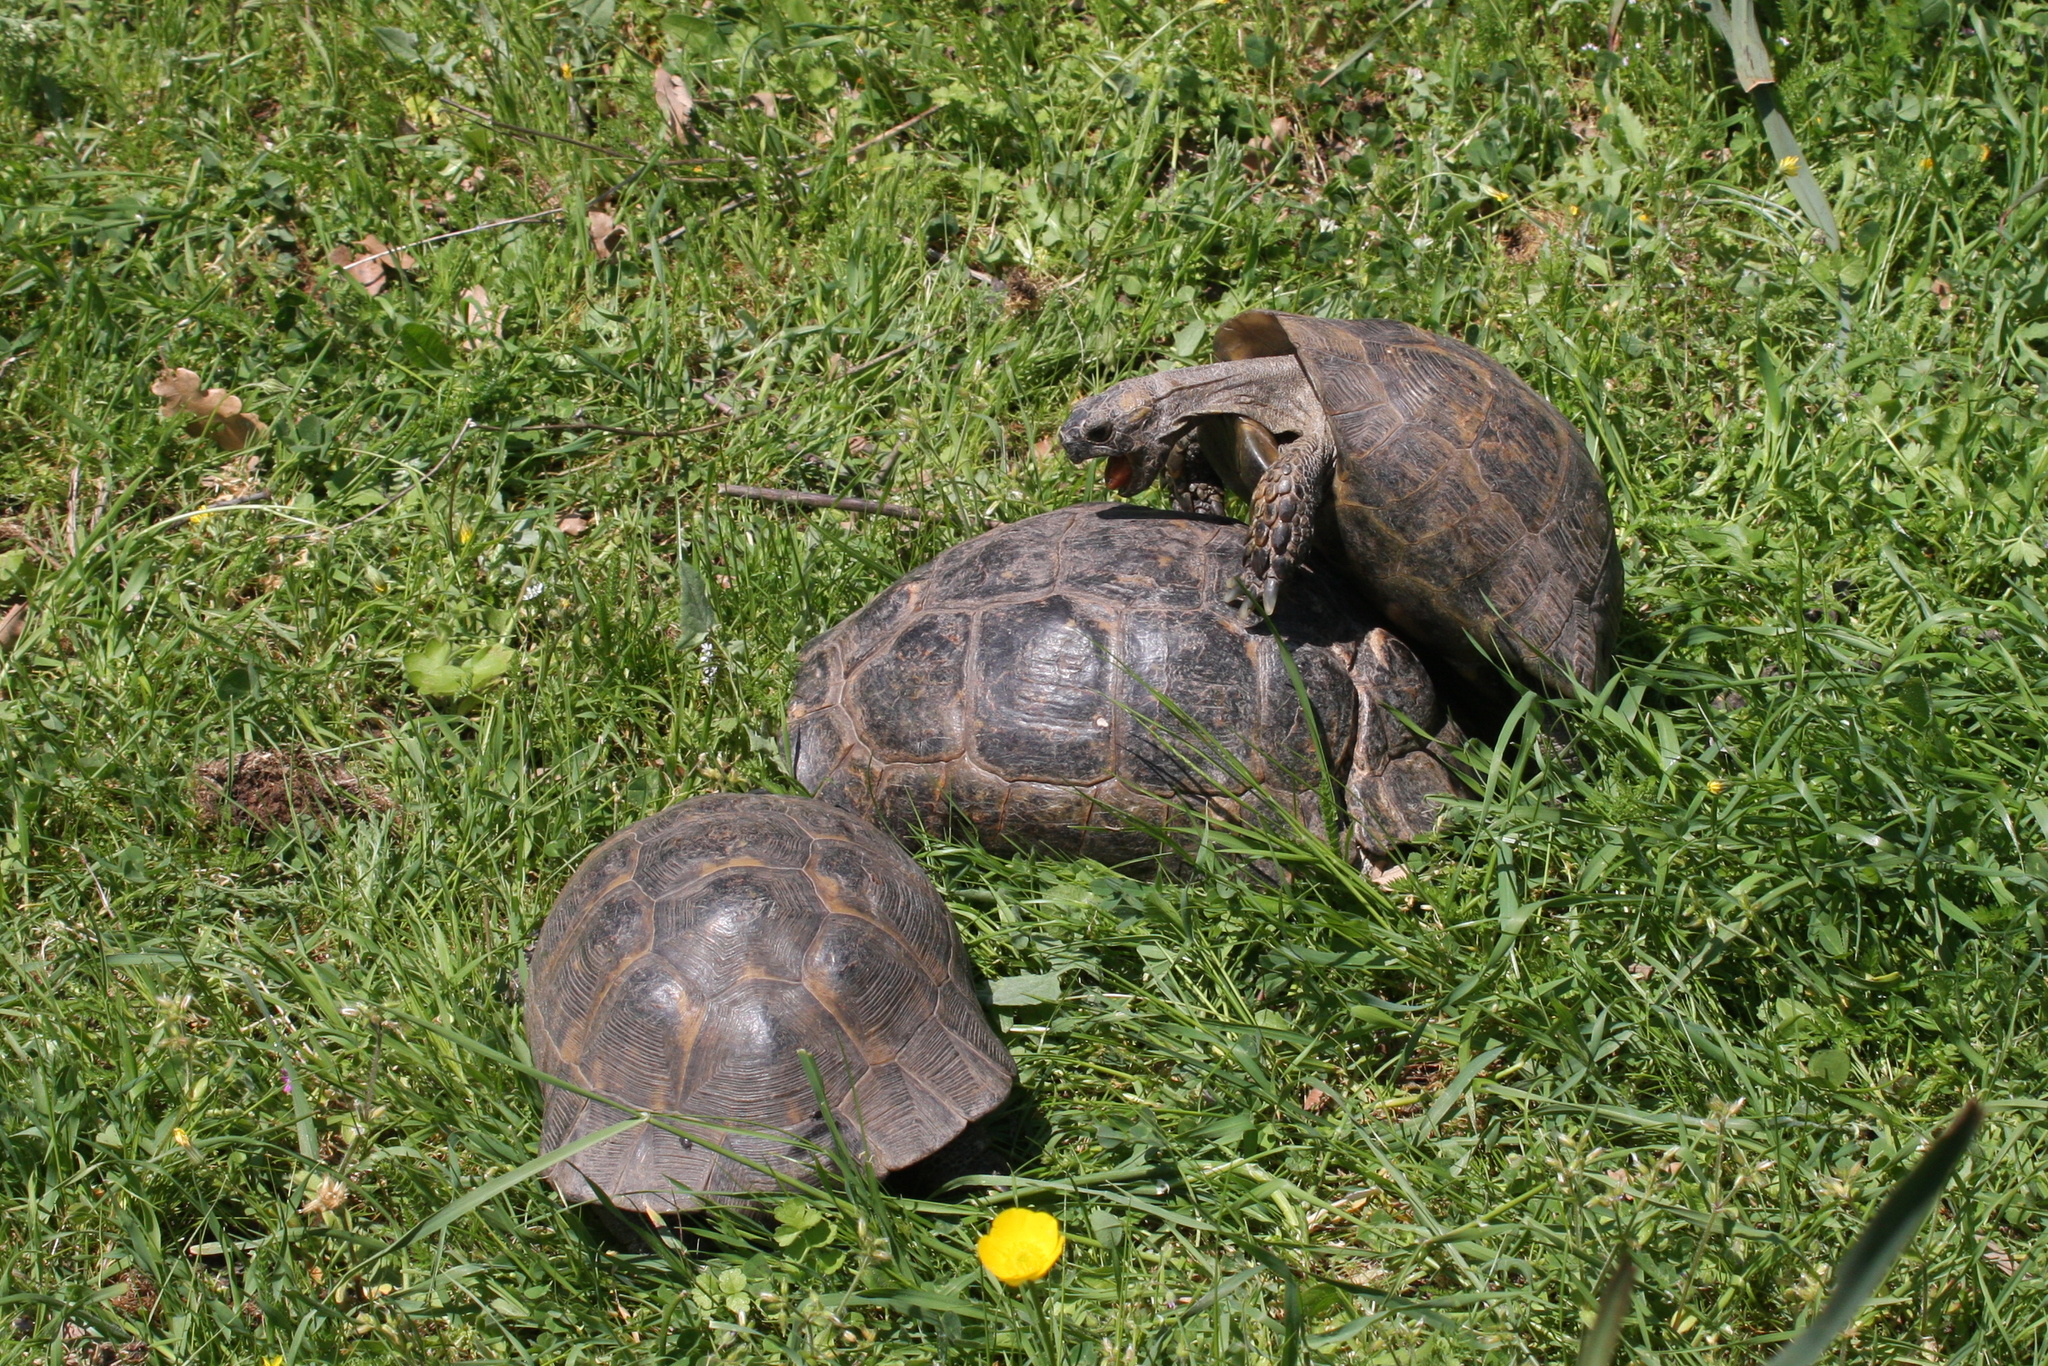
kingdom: Animalia
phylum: Chordata
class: Testudines
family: Testudinidae
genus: Testudo
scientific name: Testudo graeca
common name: Common tortoise
